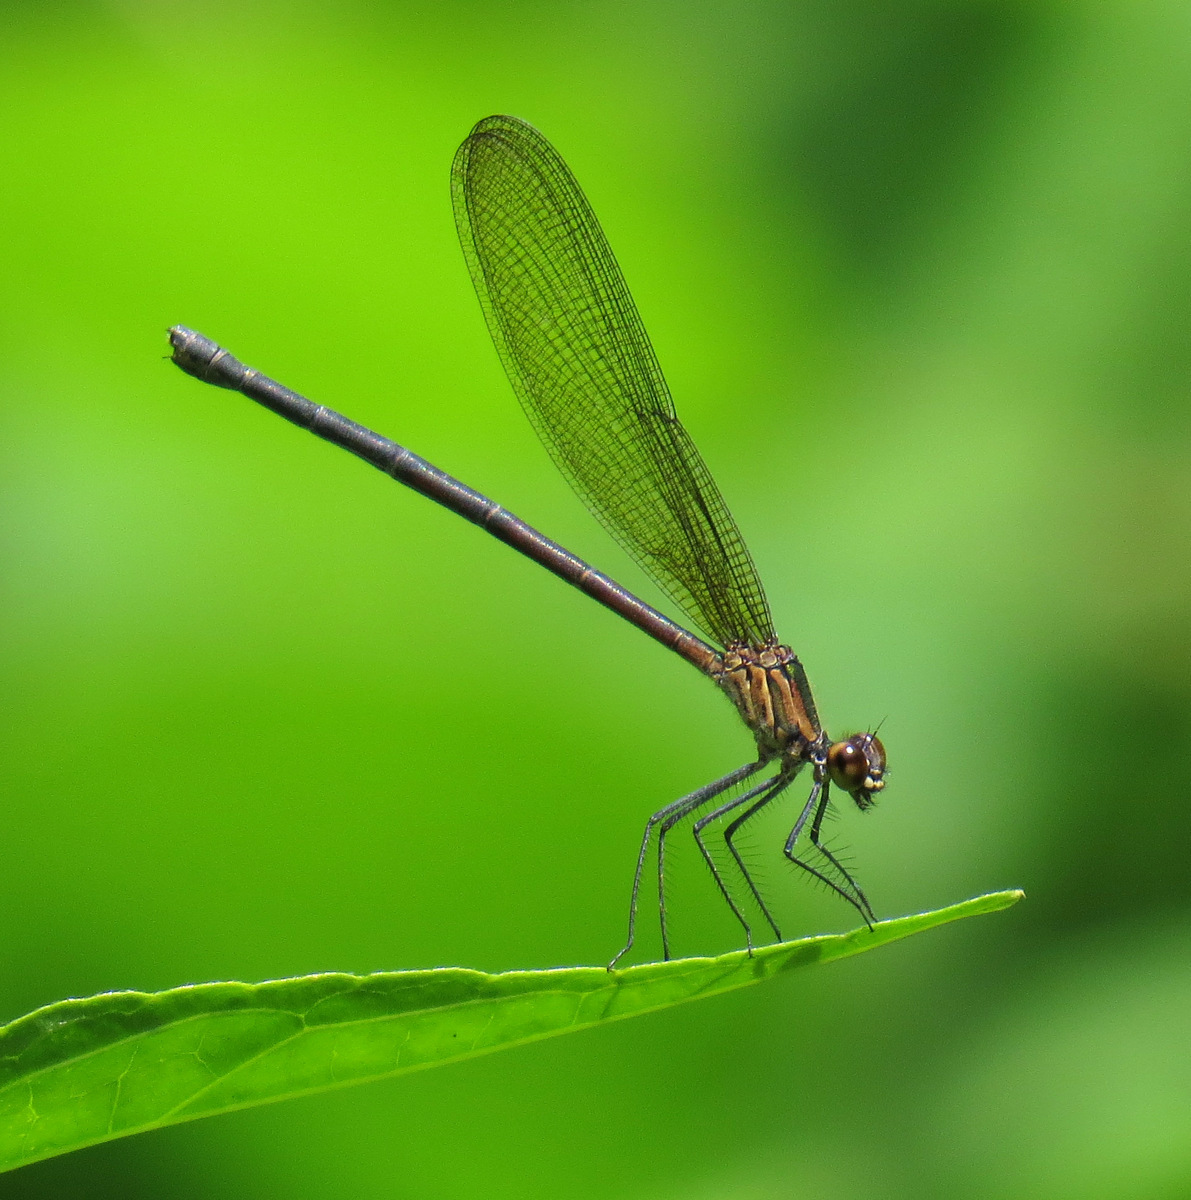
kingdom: Animalia
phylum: Arthropoda
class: Insecta
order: Odonata
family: Calopterygidae
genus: Hetaerina
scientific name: Hetaerina caja
